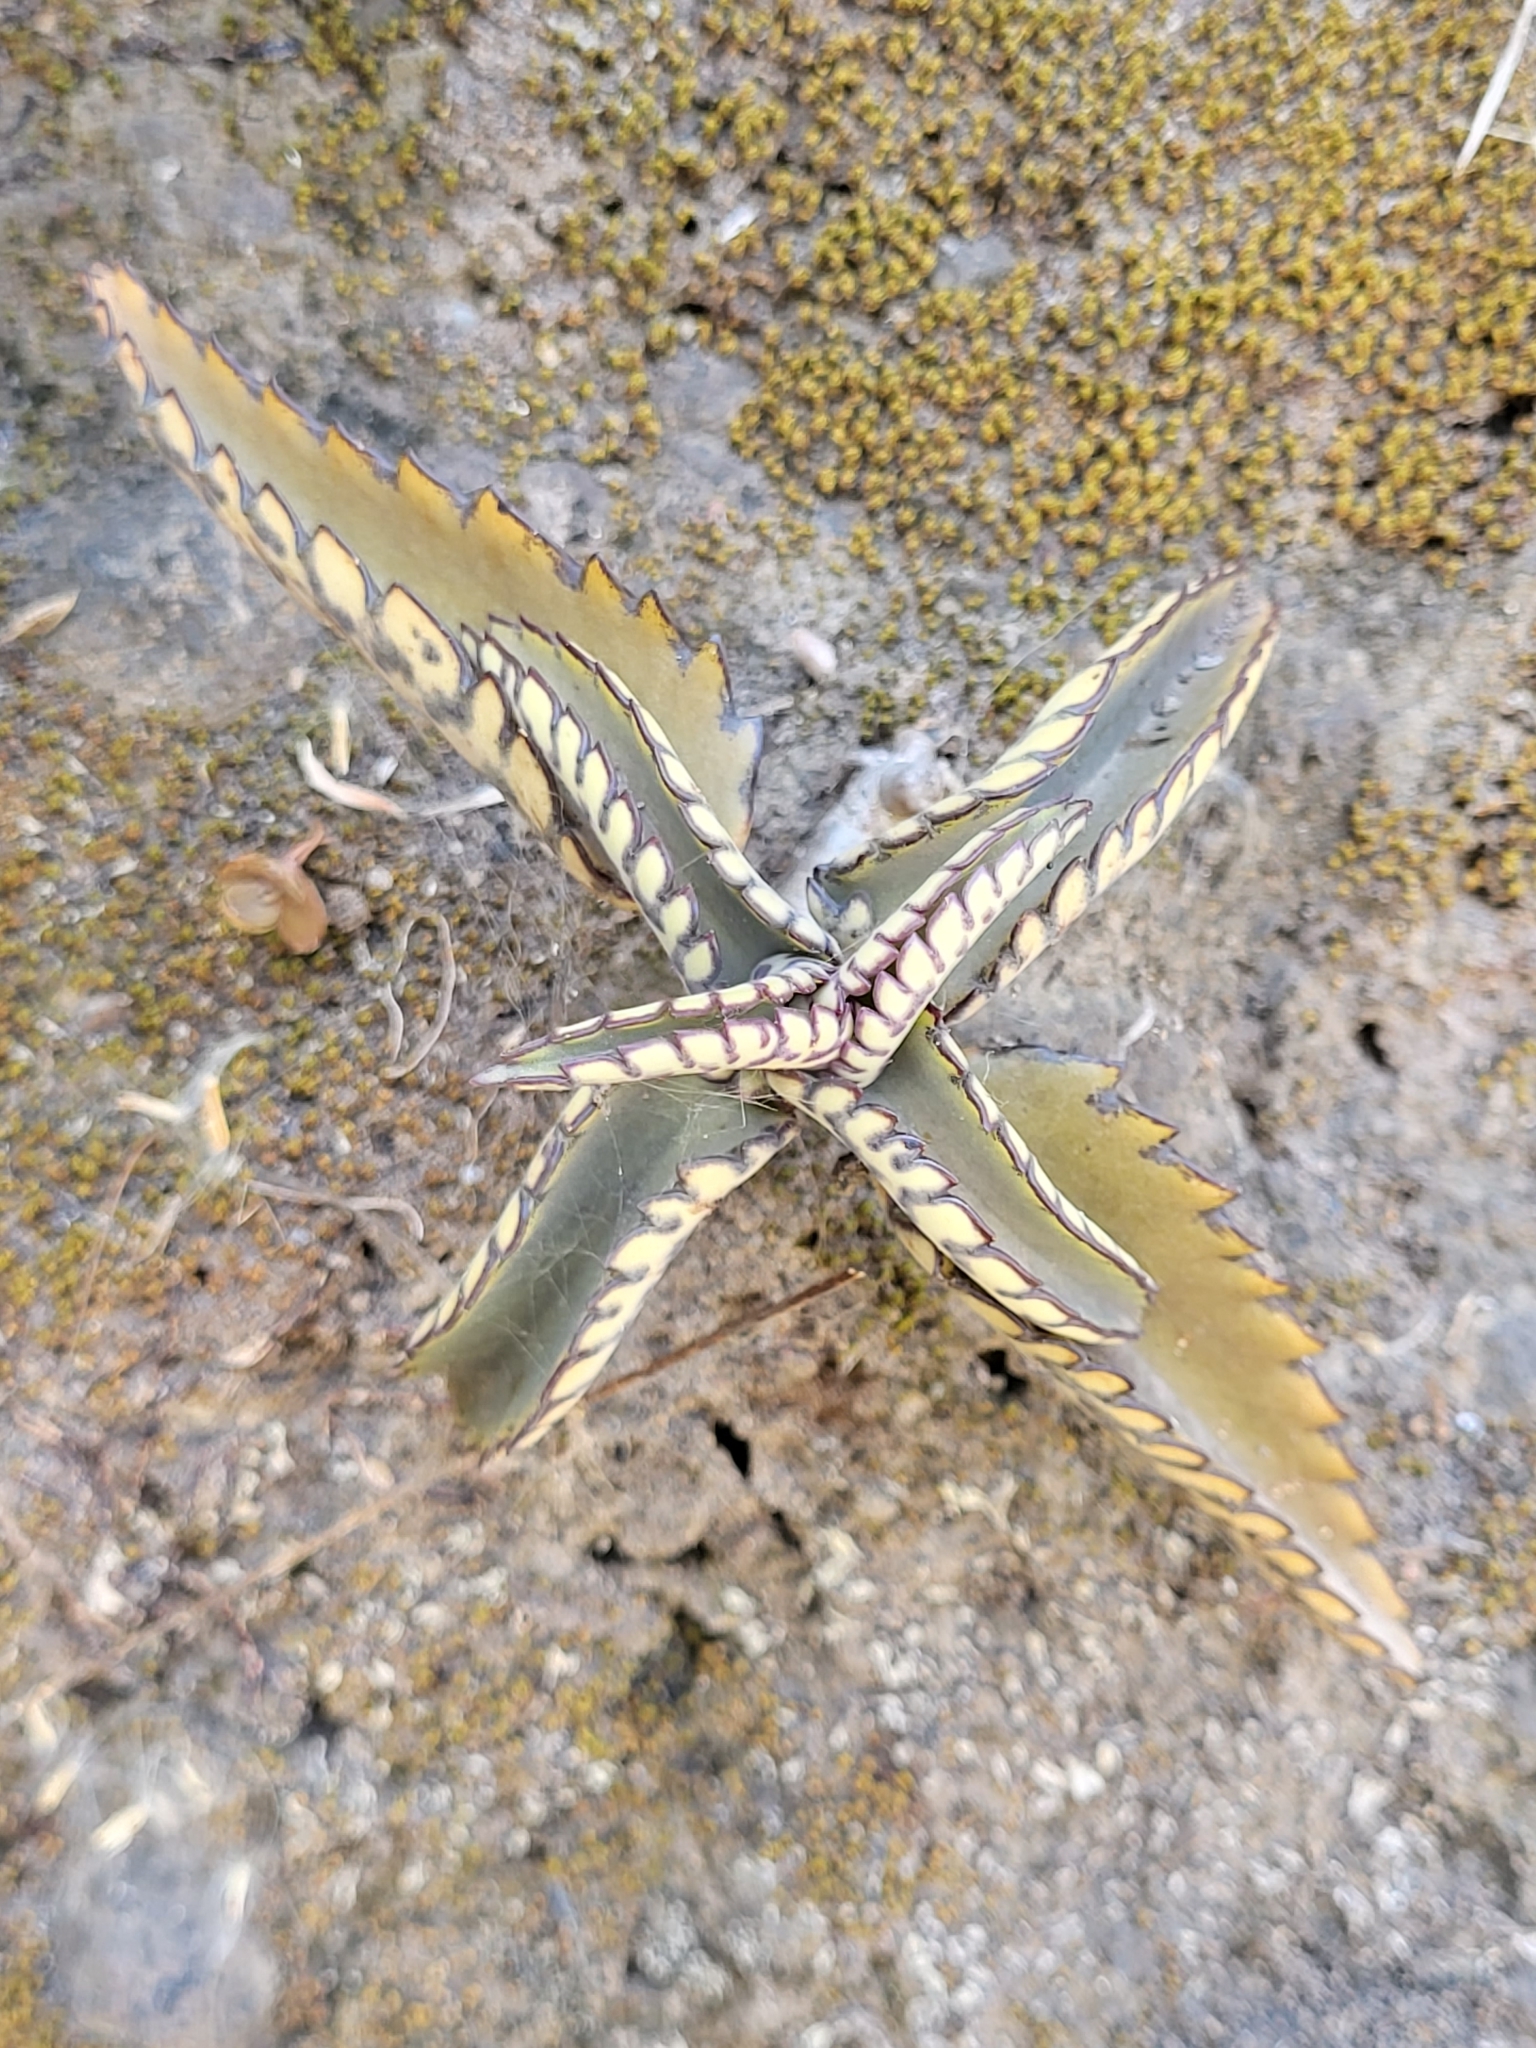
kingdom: Plantae
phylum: Tracheophyta
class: Magnoliopsida
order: Saxifragales
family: Crassulaceae
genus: Kalanchoe
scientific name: Kalanchoe daigremontiana
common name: Devil's backbone
